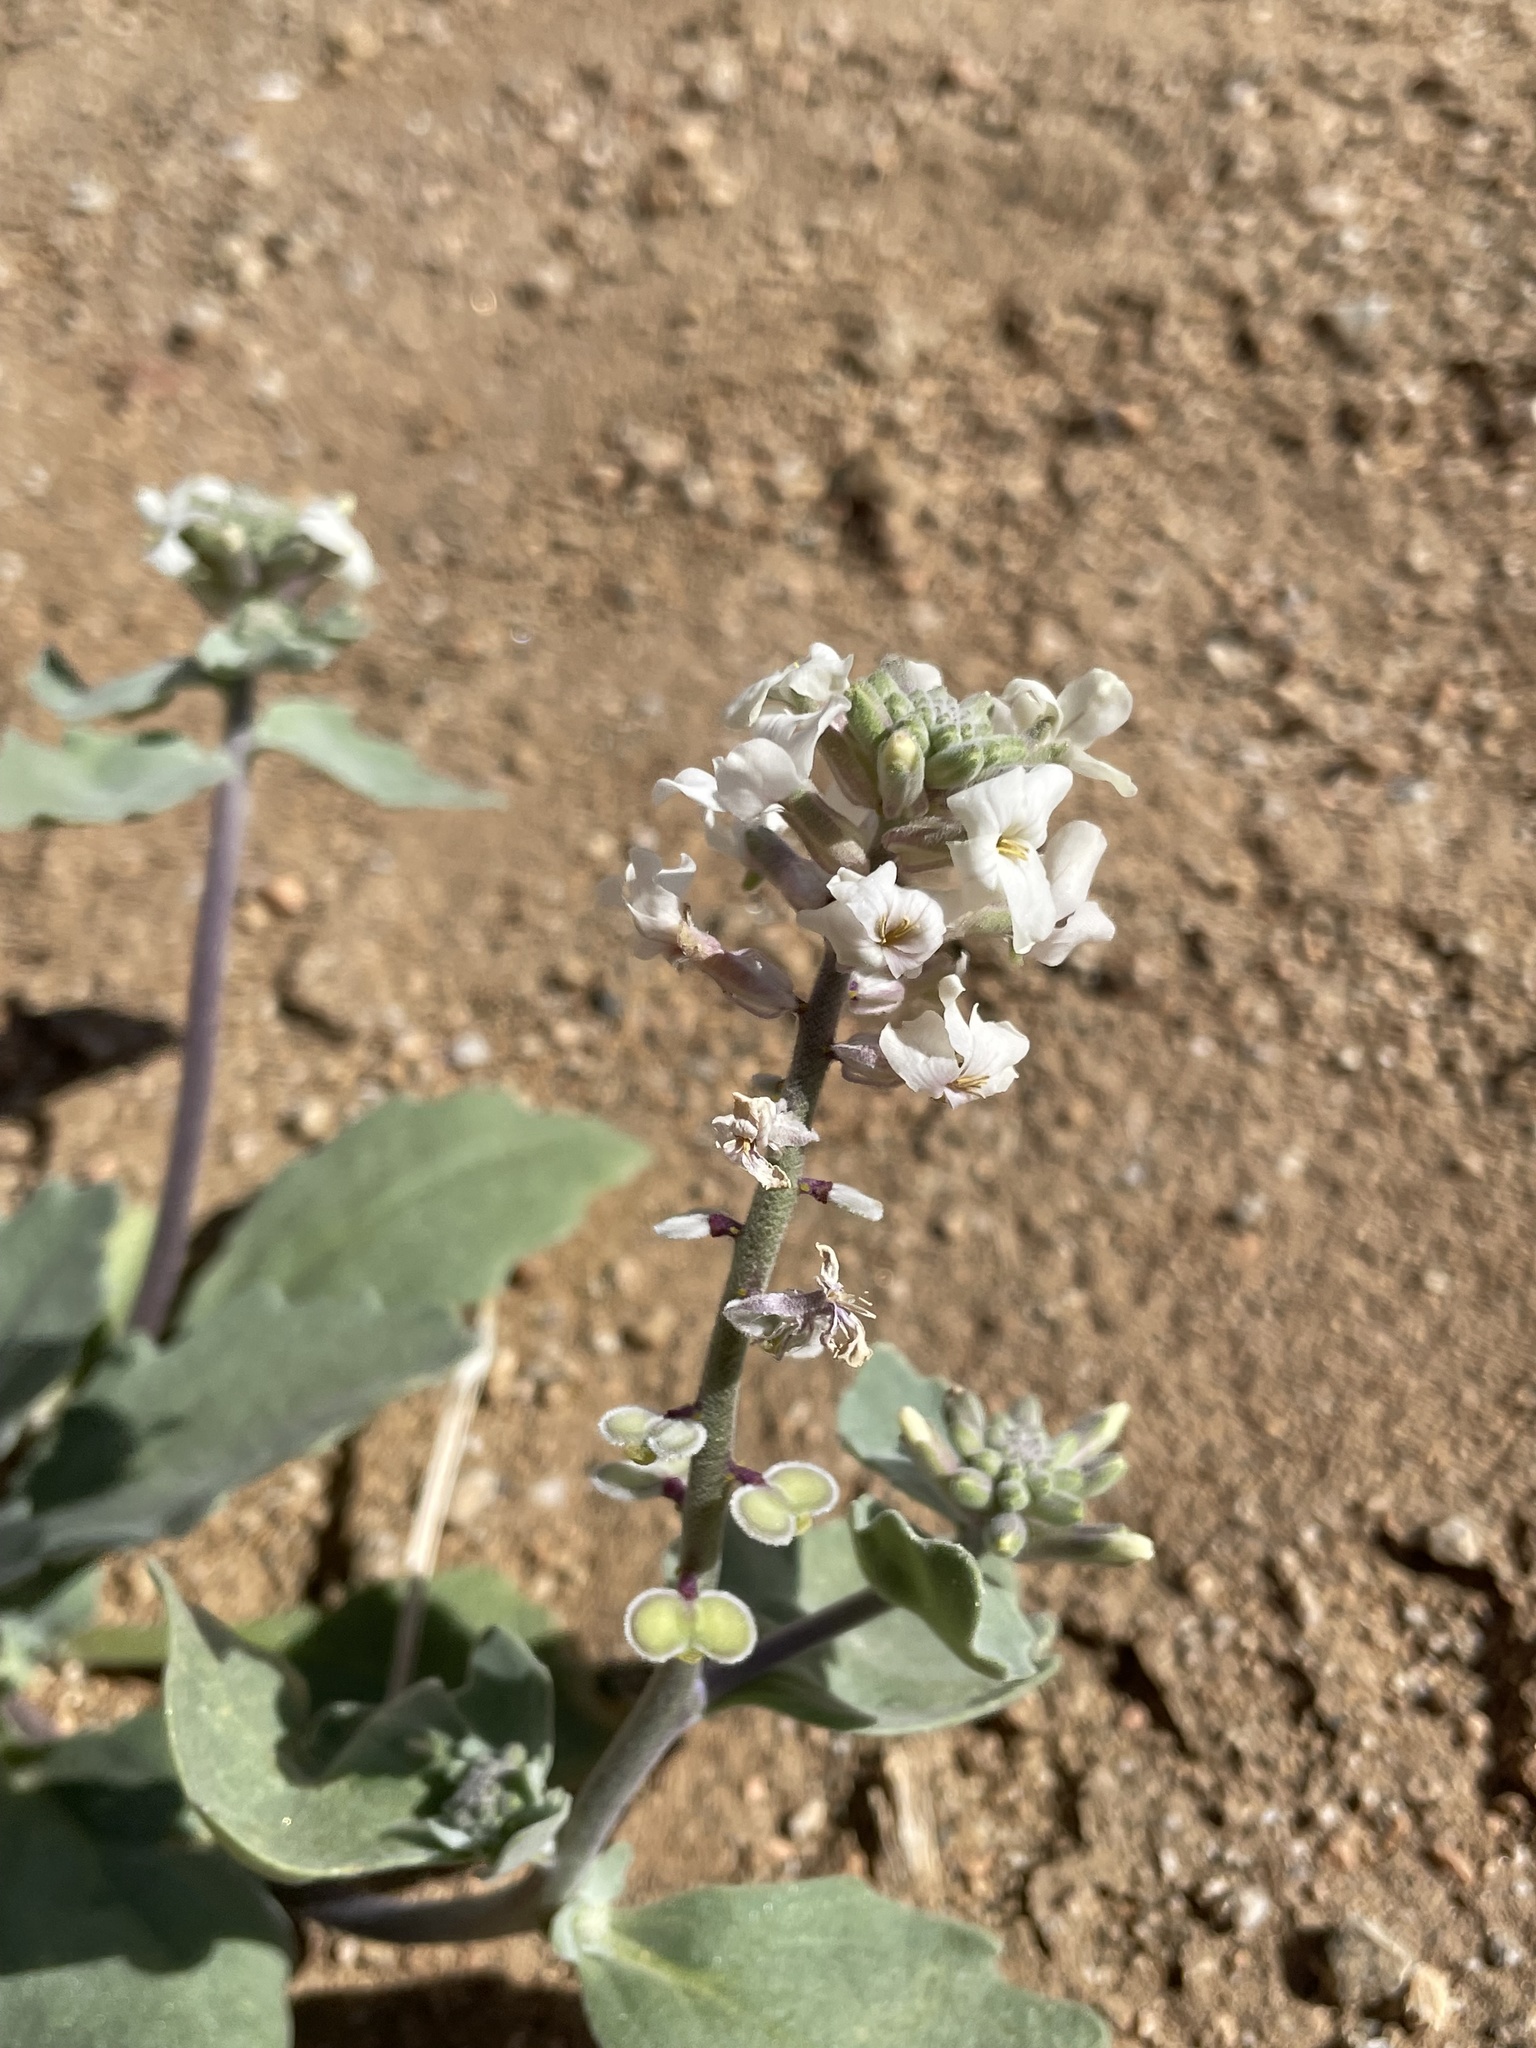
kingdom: Plantae
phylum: Tracheophyta
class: Magnoliopsida
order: Brassicales
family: Brassicaceae
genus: Dithyrea
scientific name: Dithyrea californica
